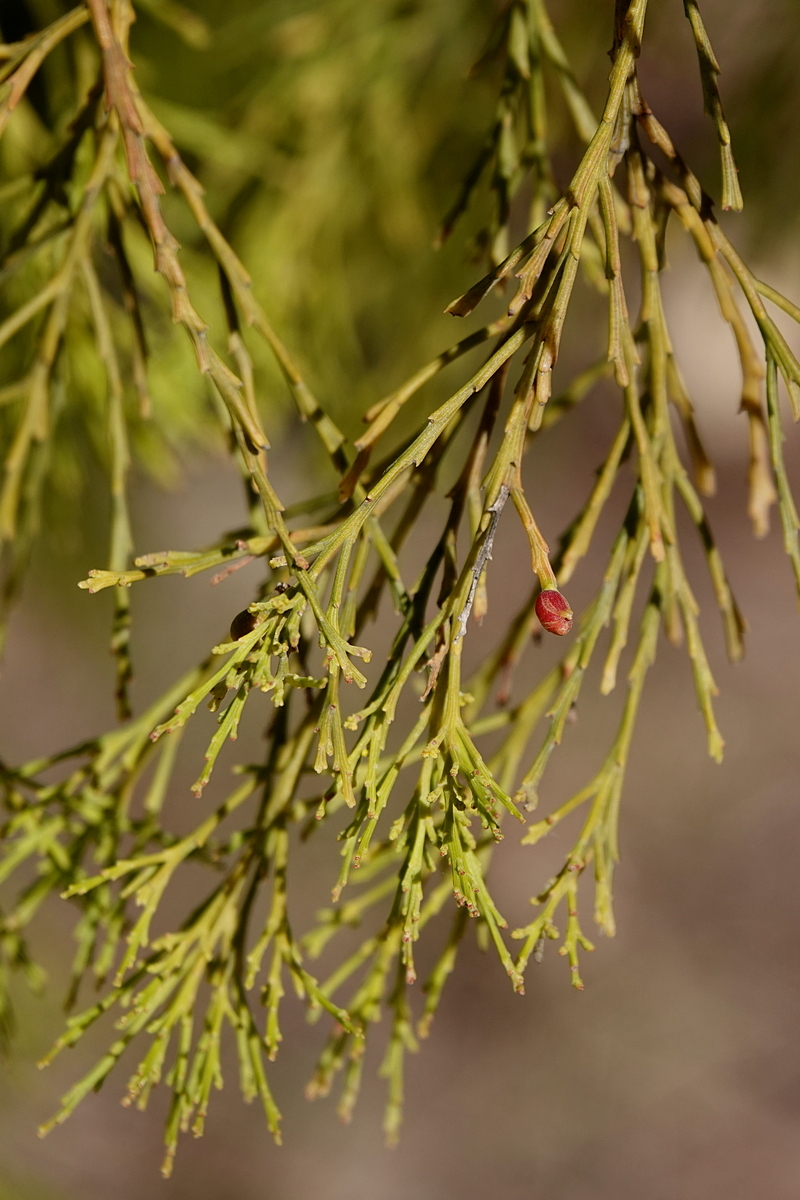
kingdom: Plantae
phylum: Tracheophyta
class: Magnoliopsida
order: Santalales
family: Santalaceae
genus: Exocarpos
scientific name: Exocarpos cupressiformis
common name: Cherry ballart
